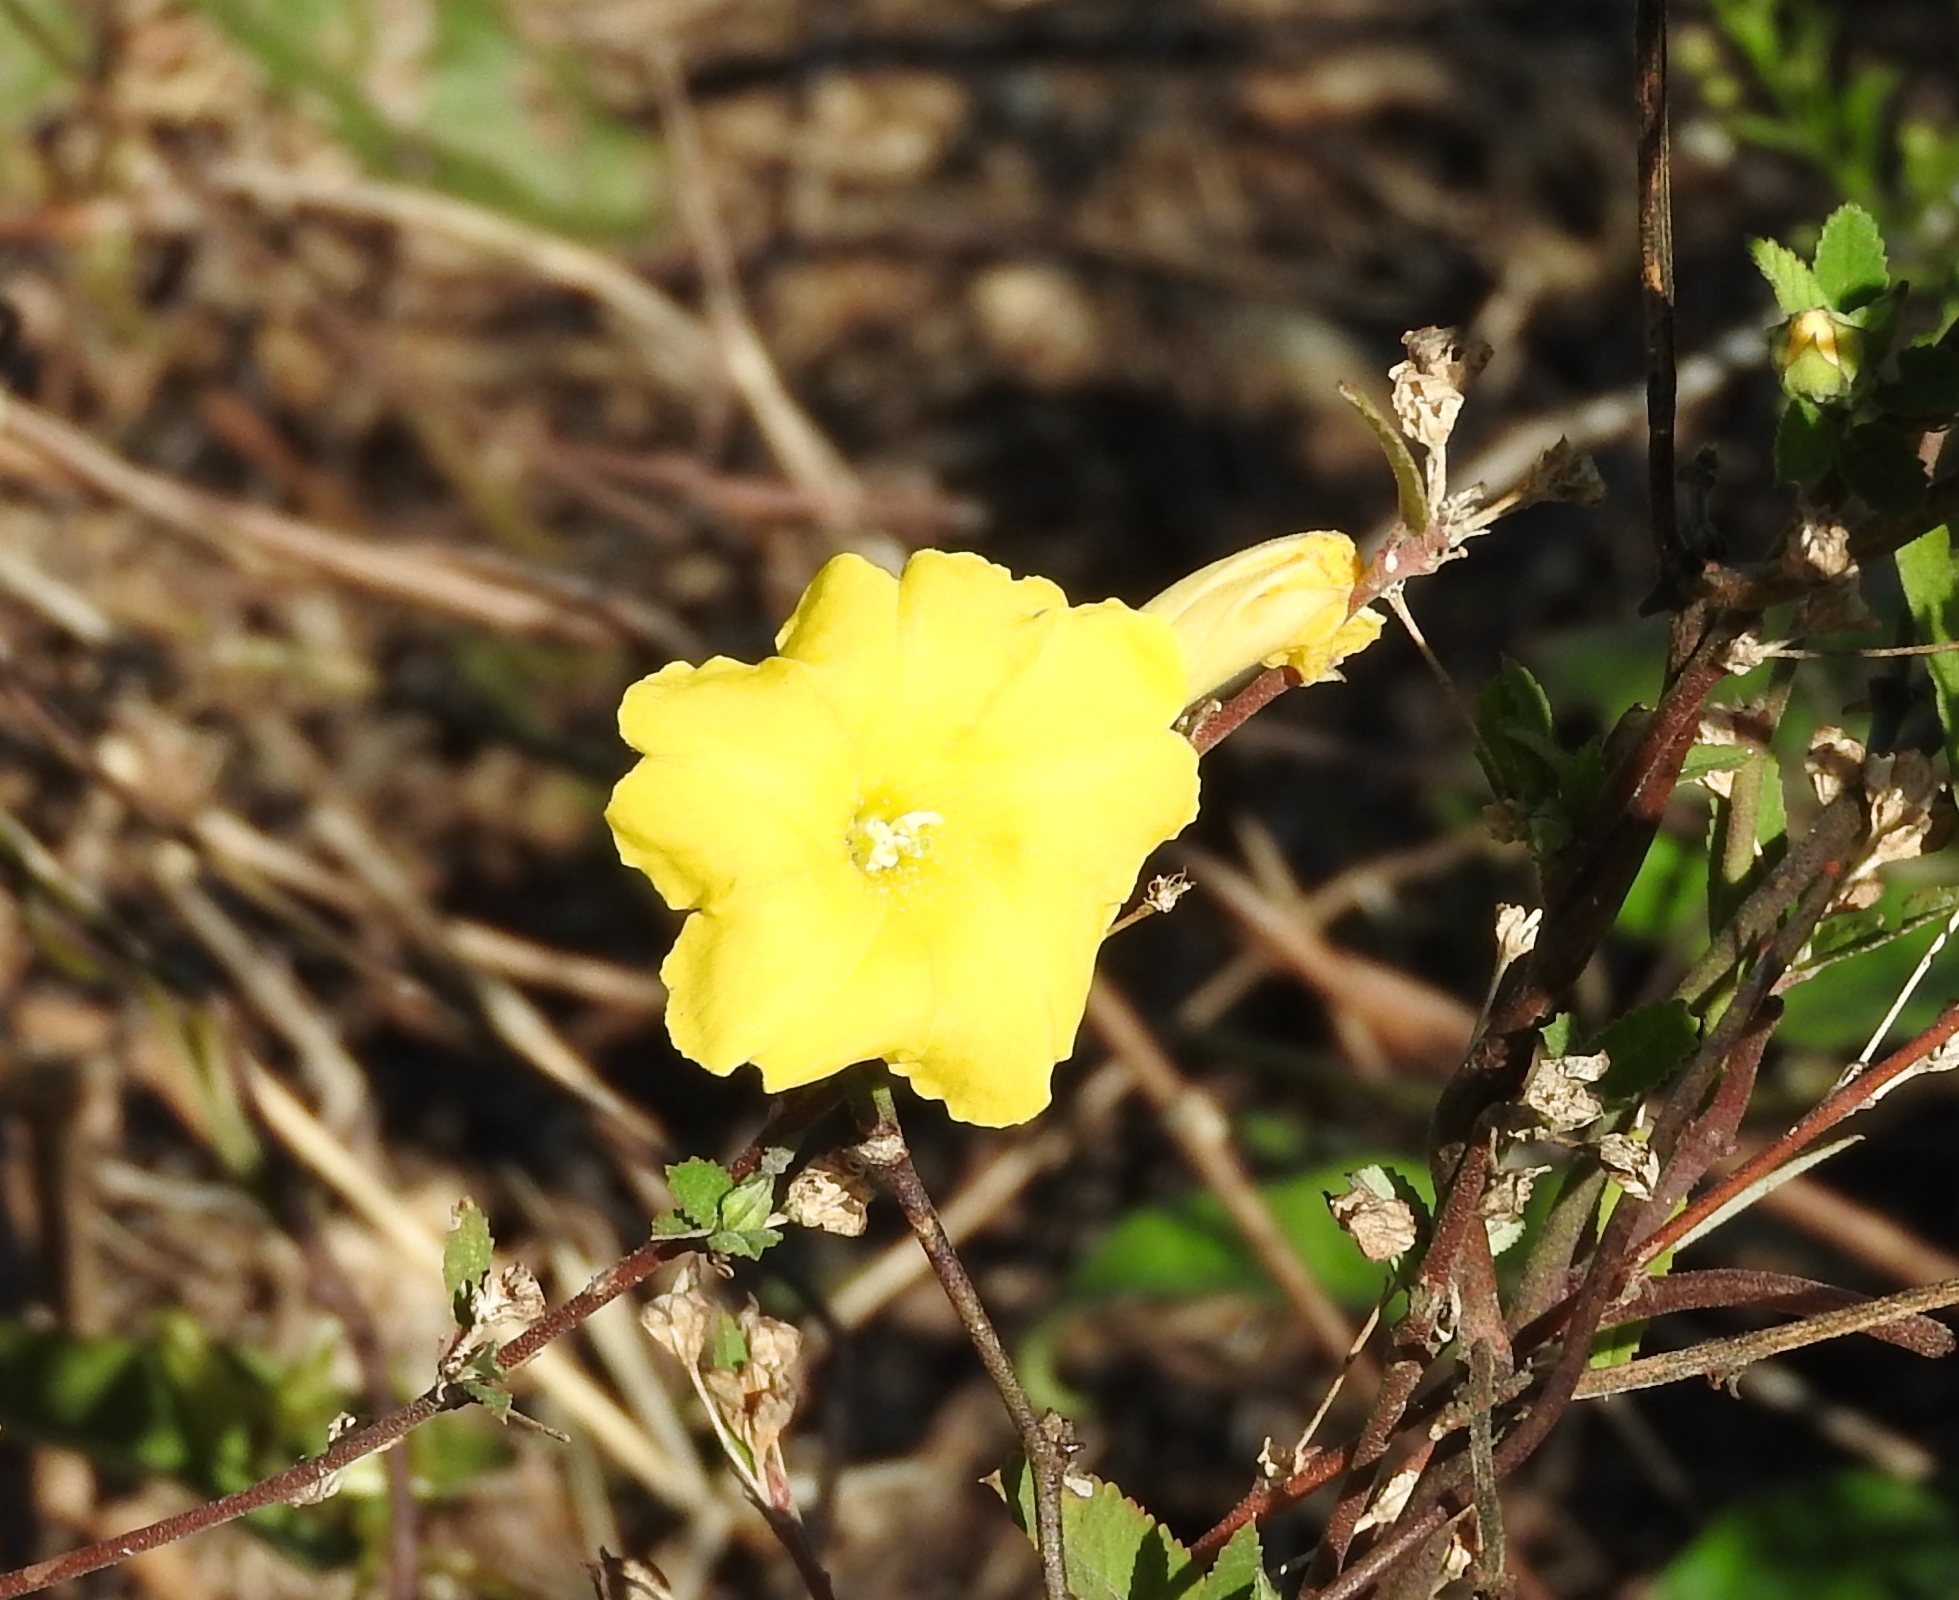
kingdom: Plantae
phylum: Tracheophyta
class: Magnoliopsida
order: Solanales
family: Convolvulaceae
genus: Camonea
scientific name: Camonea umbellata
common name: Hogvine
